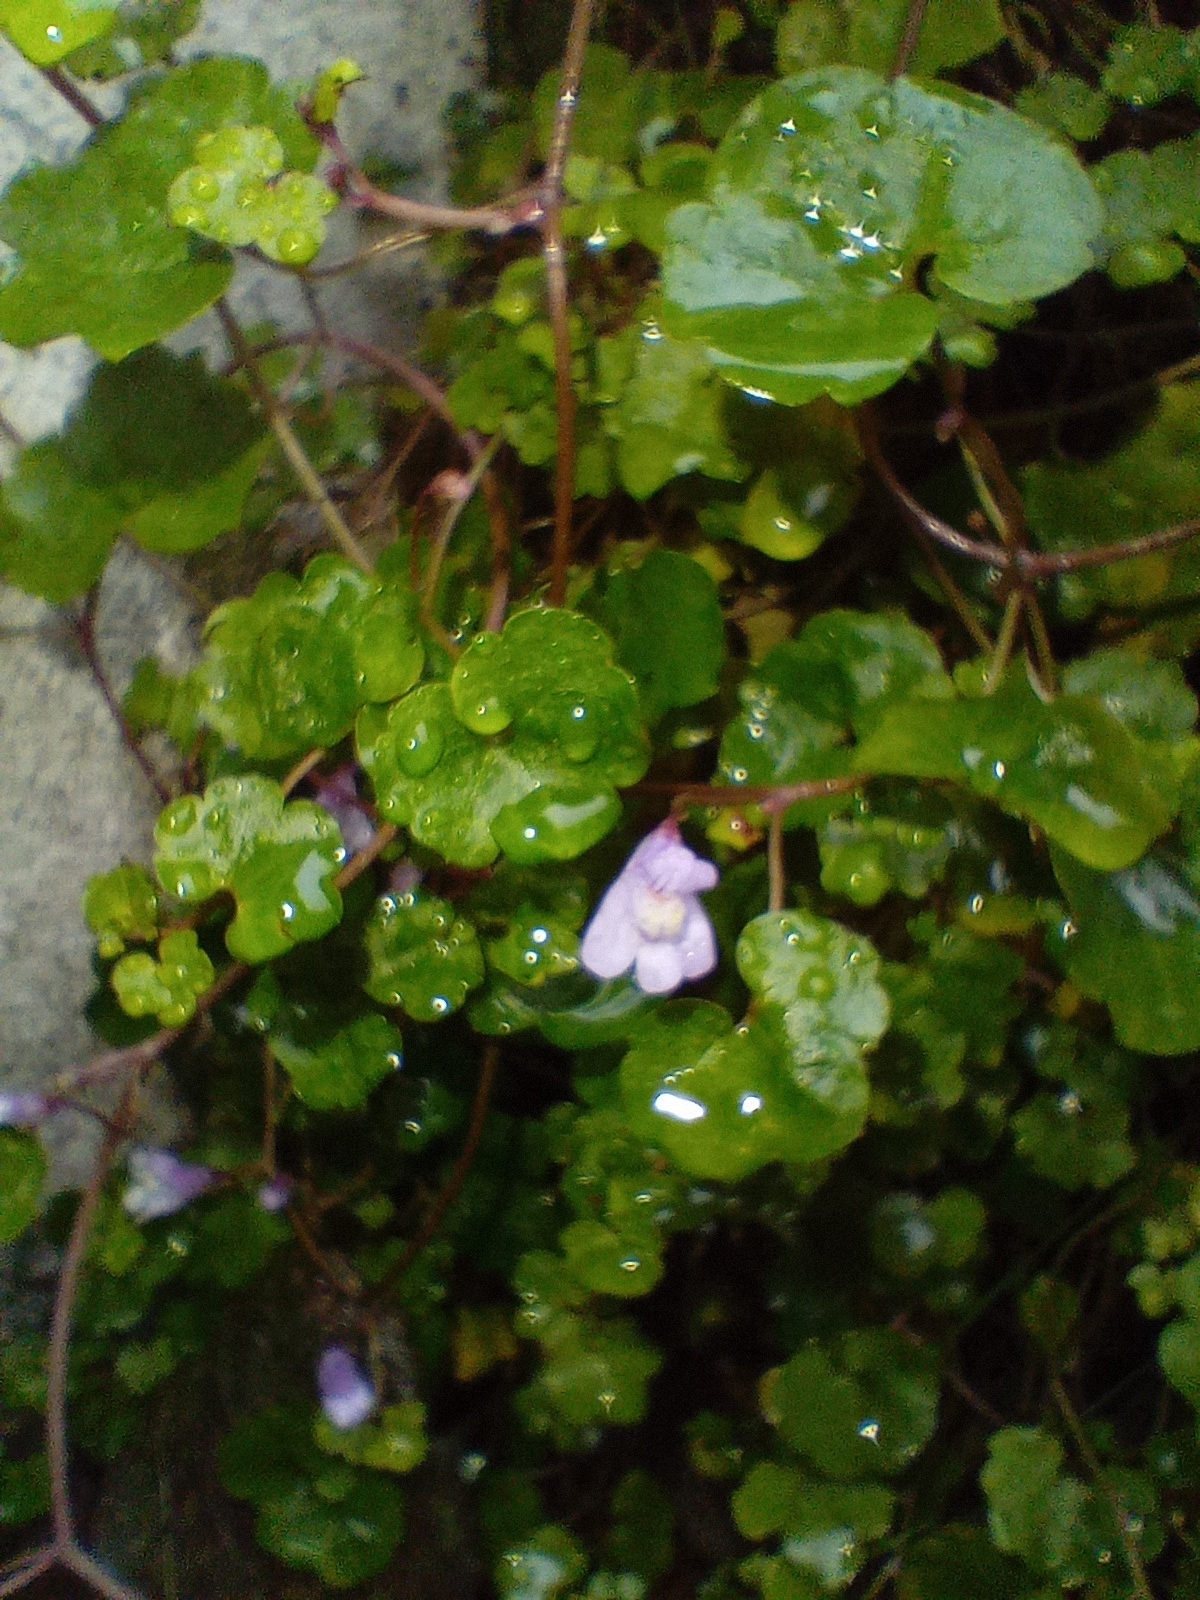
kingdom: Plantae
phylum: Tracheophyta
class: Magnoliopsida
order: Lamiales
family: Plantaginaceae
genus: Cymbalaria
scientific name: Cymbalaria muralis
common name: Ivy-leaved toadflax
